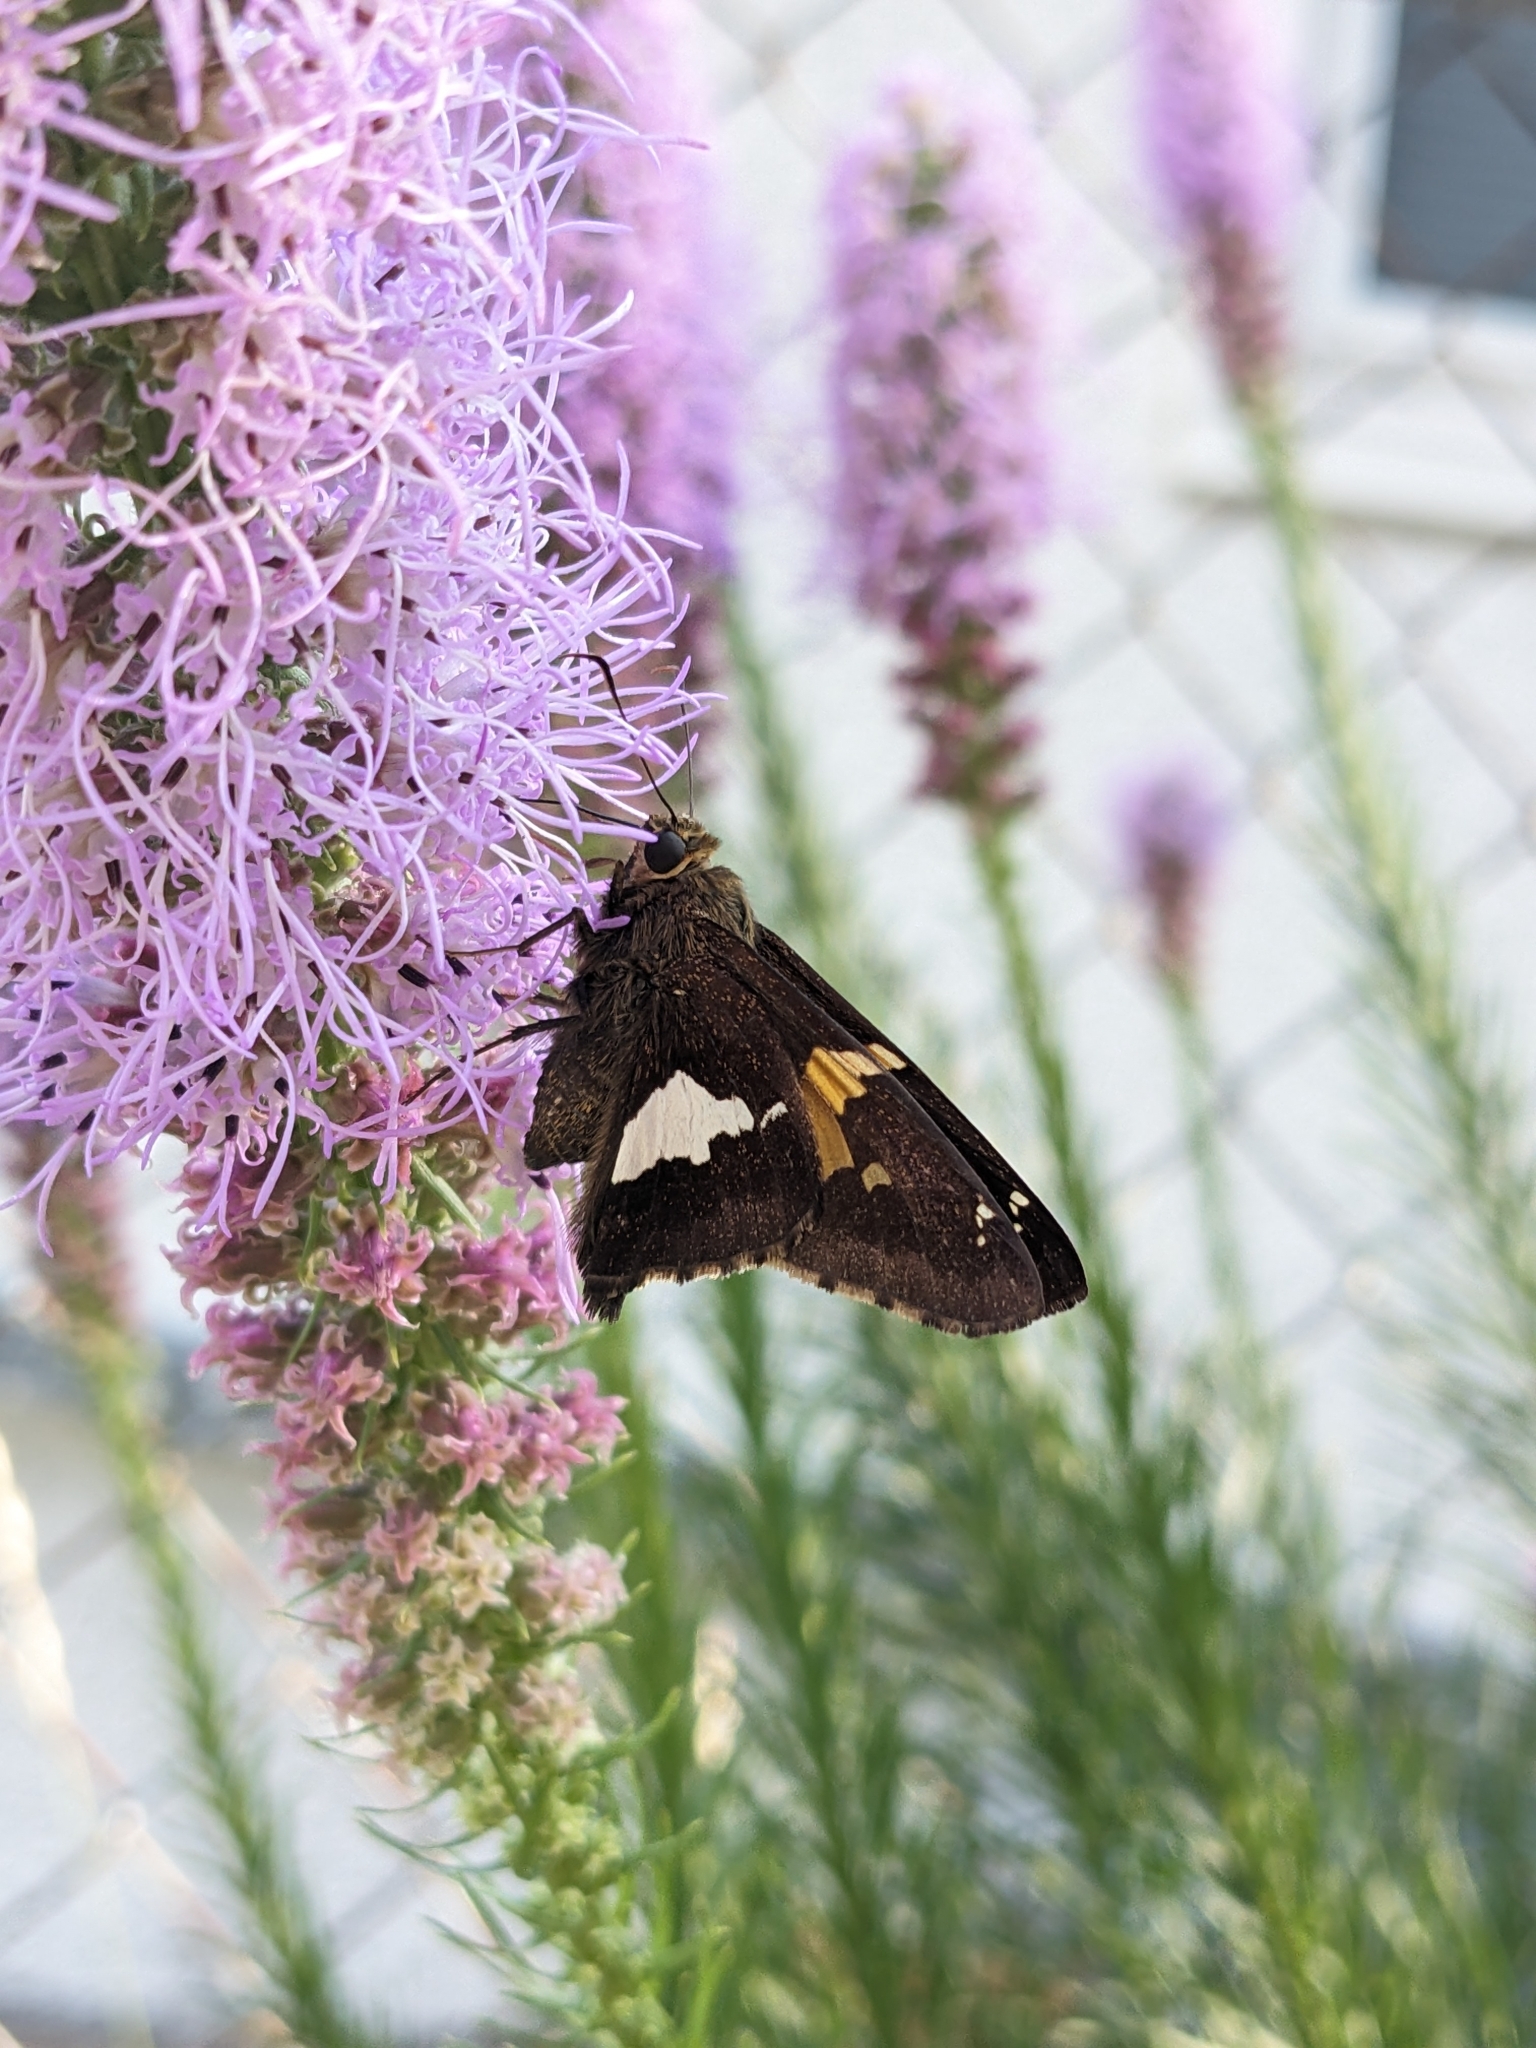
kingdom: Animalia
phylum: Arthropoda
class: Insecta
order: Lepidoptera
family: Hesperiidae
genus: Epargyreus
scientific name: Epargyreus clarus
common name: Silver-spotted skipper
